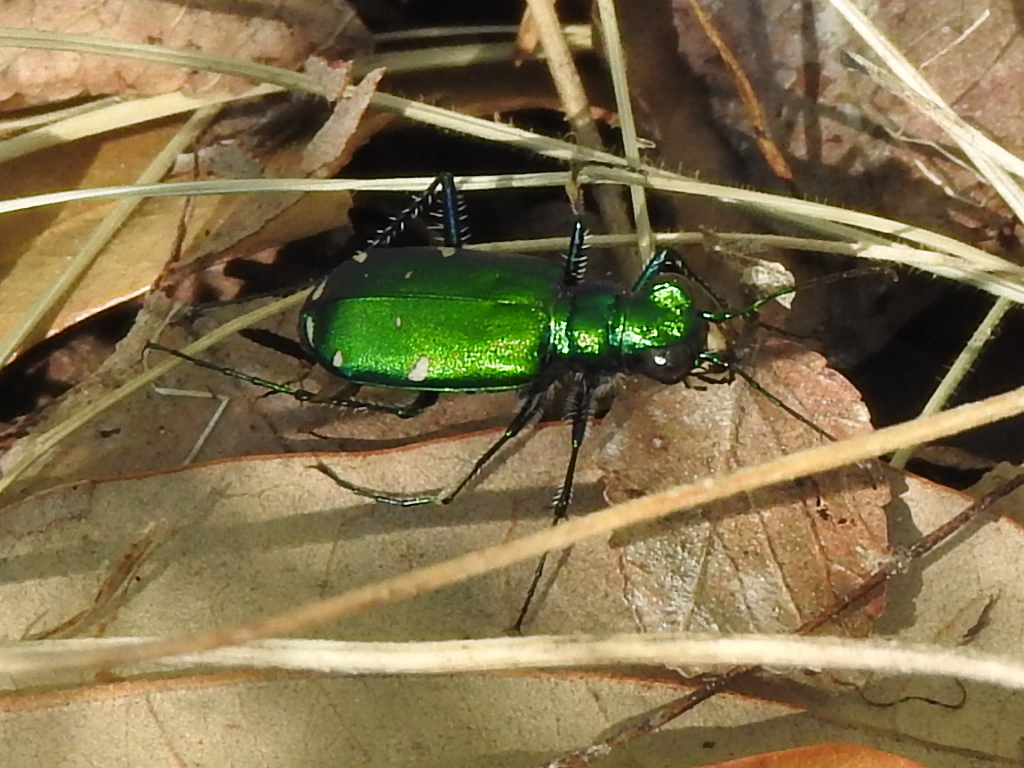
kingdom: Animalia
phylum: Arthropoda
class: Insecta
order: Coleoptera
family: Carabidae
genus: Cicindela
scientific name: Cicindela sexguttata
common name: Six-spotted tiger beetle
